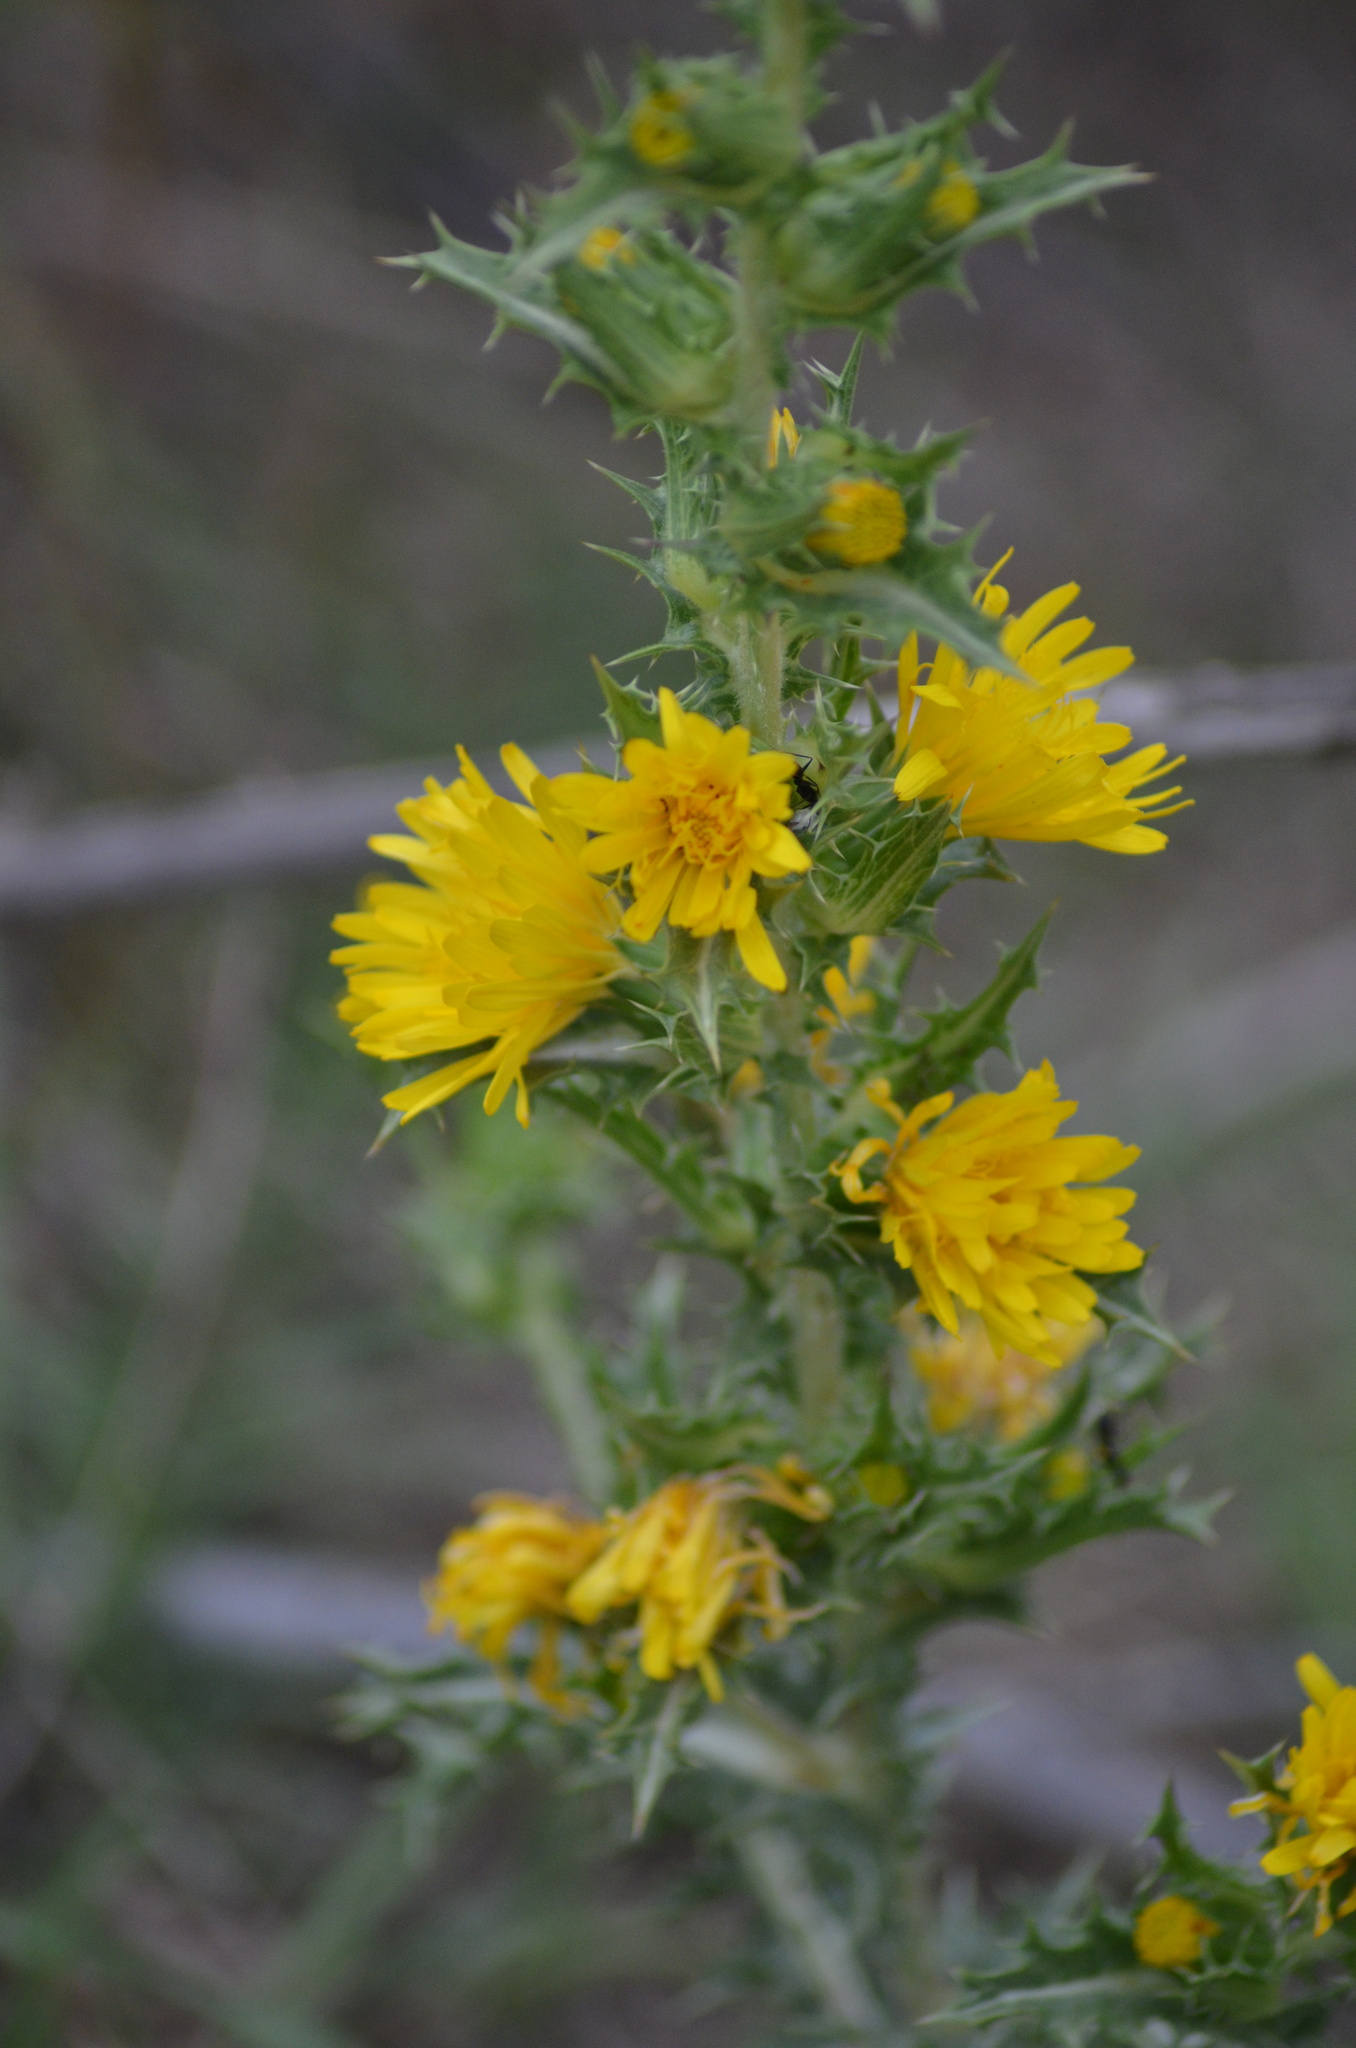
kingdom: Plantae
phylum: Tracheophyta
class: Magnoliopsida
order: Asterales
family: Asteraceae
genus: Scolymus
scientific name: Scolymus hispanicus
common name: Golden thistle
